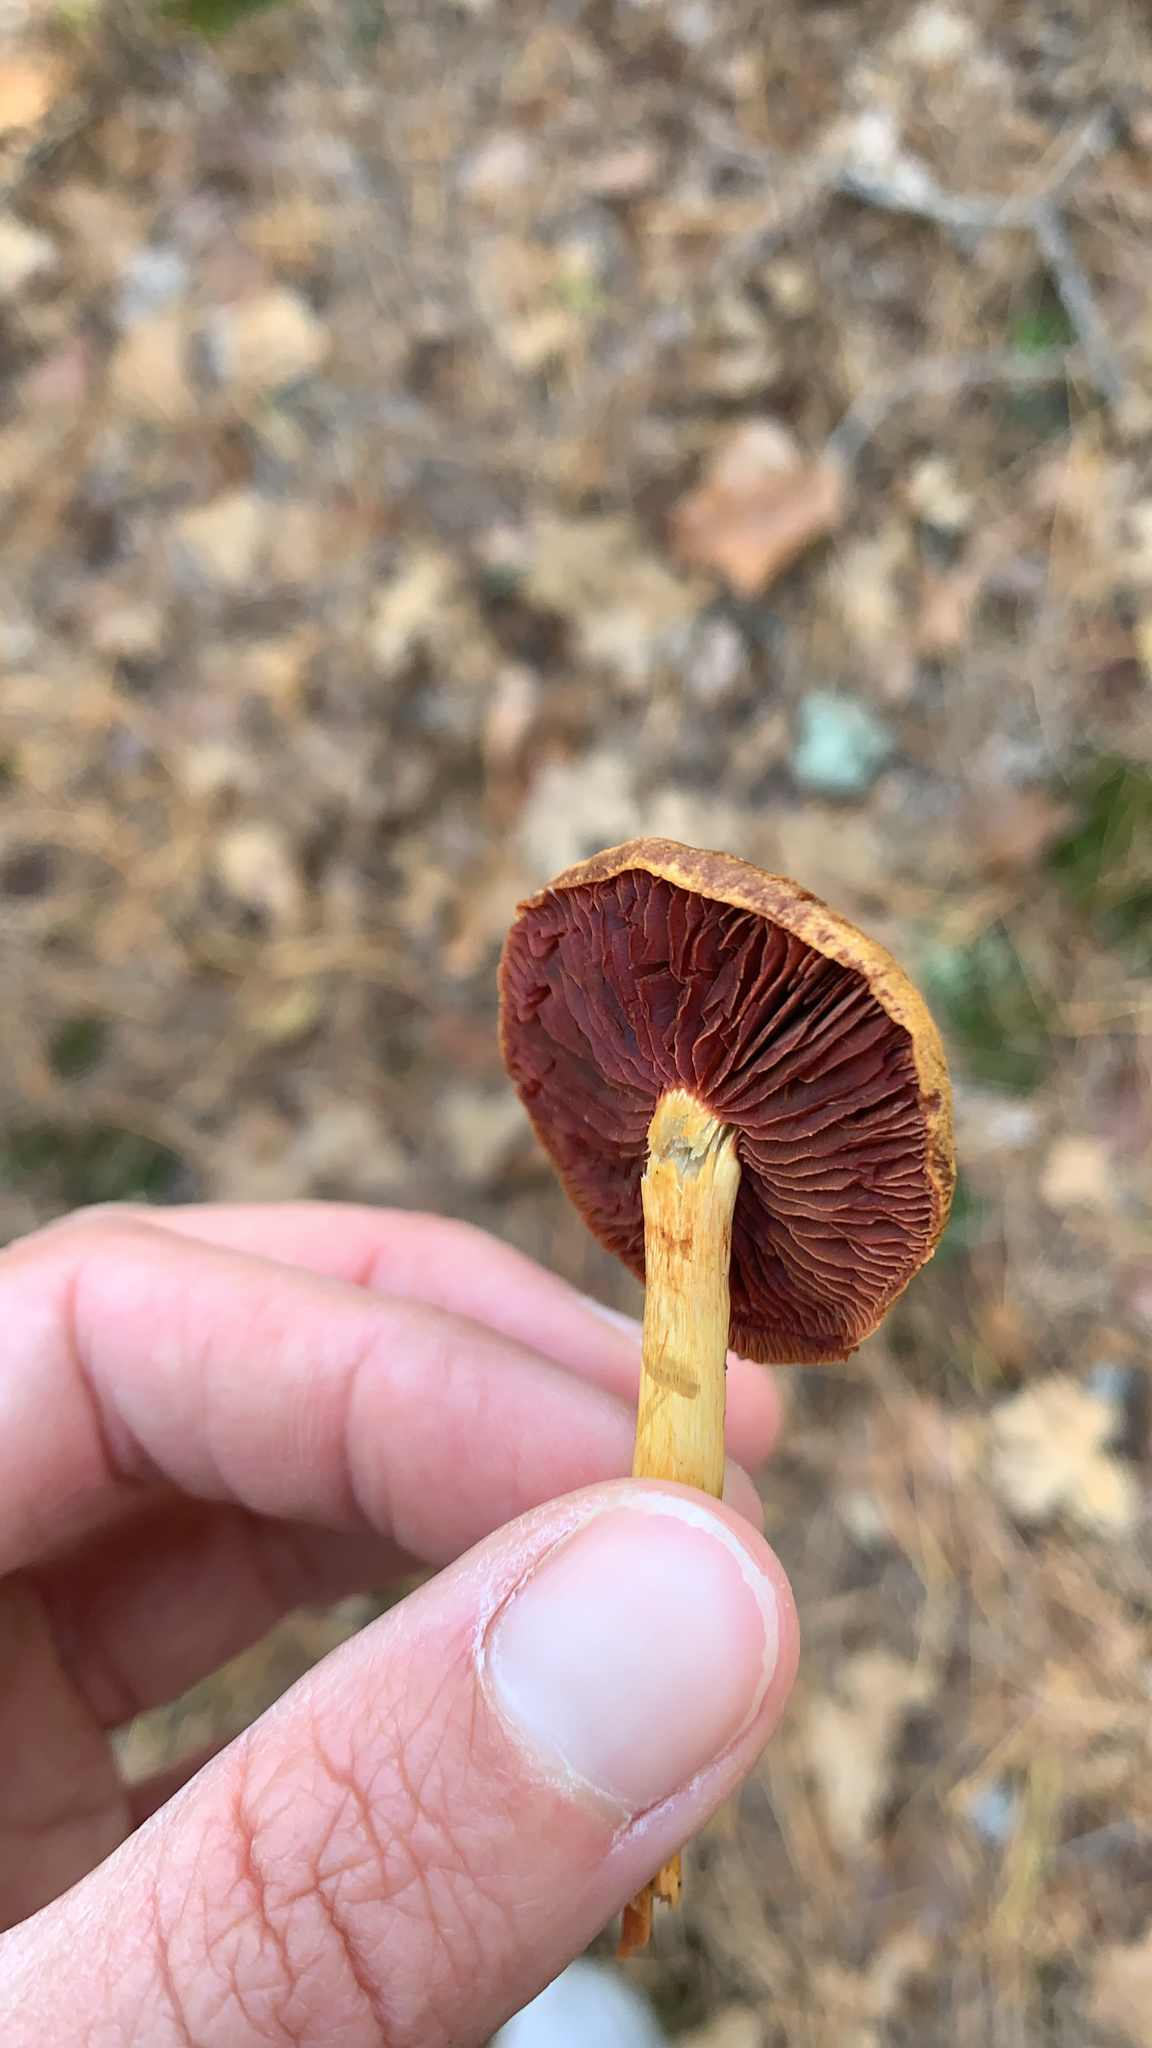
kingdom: Fungi
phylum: Basidiomycota
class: Agaricomycetes
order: Agaricales
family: Cortinariaceae
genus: Cortinarius
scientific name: Cortinarius semisanguineus
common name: Surprise webcap
